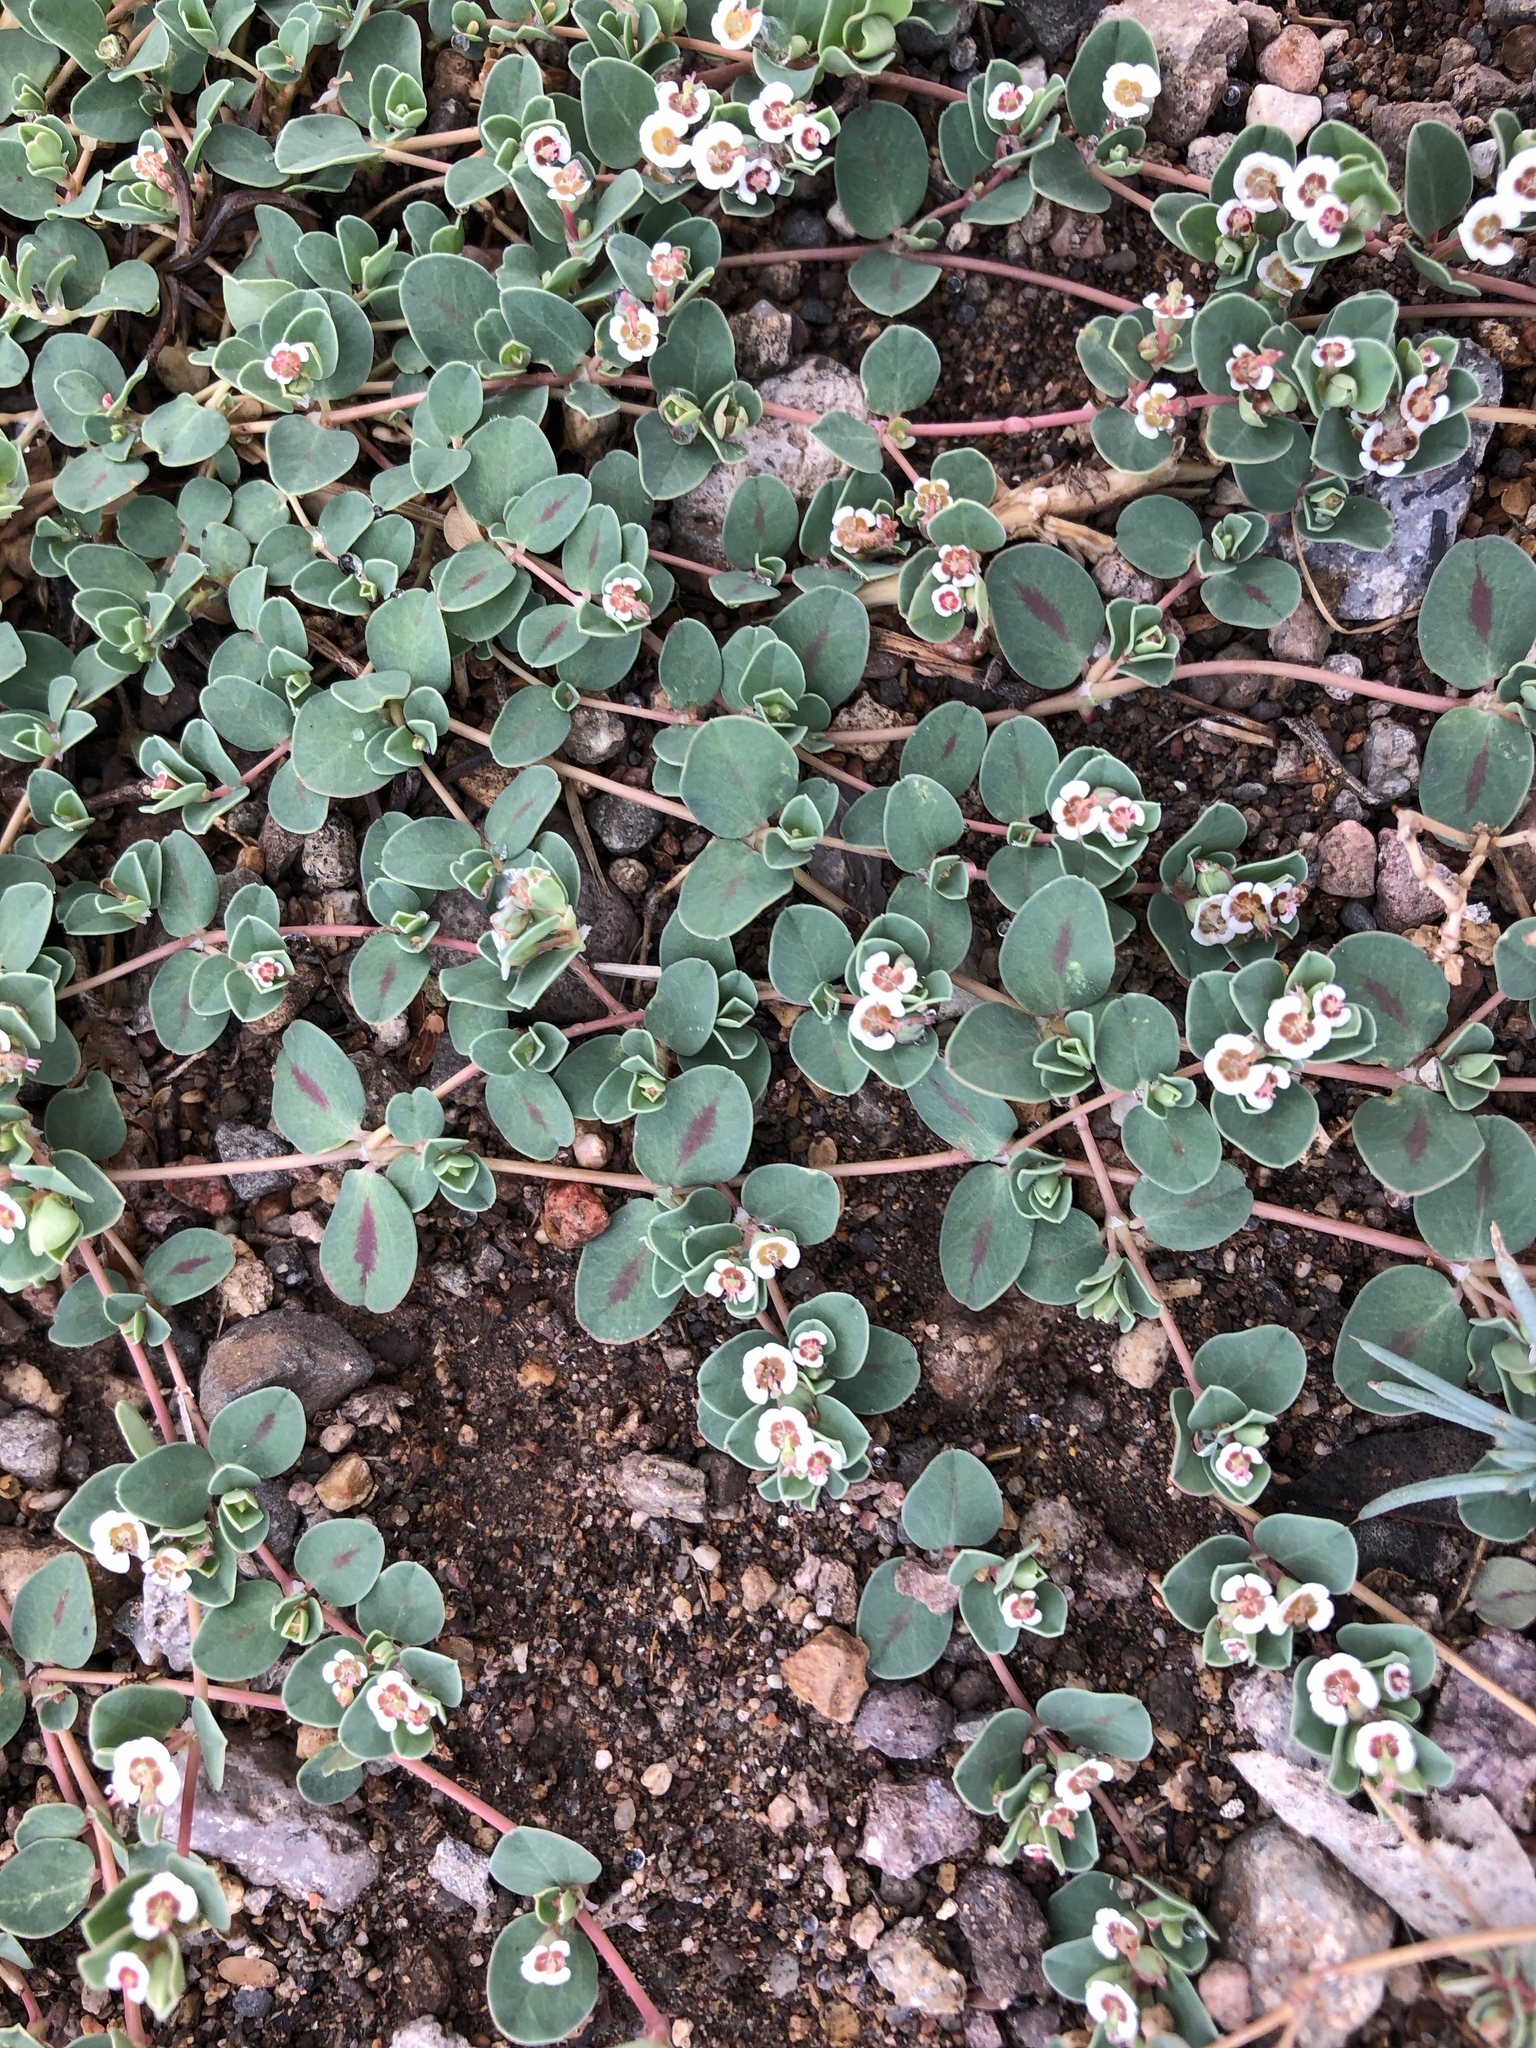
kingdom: Plantae
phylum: Tracheophyta
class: Magnoliopsida
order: Malpighiales
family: Euphorbiaceae
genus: Euphorbia
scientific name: Euphorbia albomarginata
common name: Whitemargin sandmat
